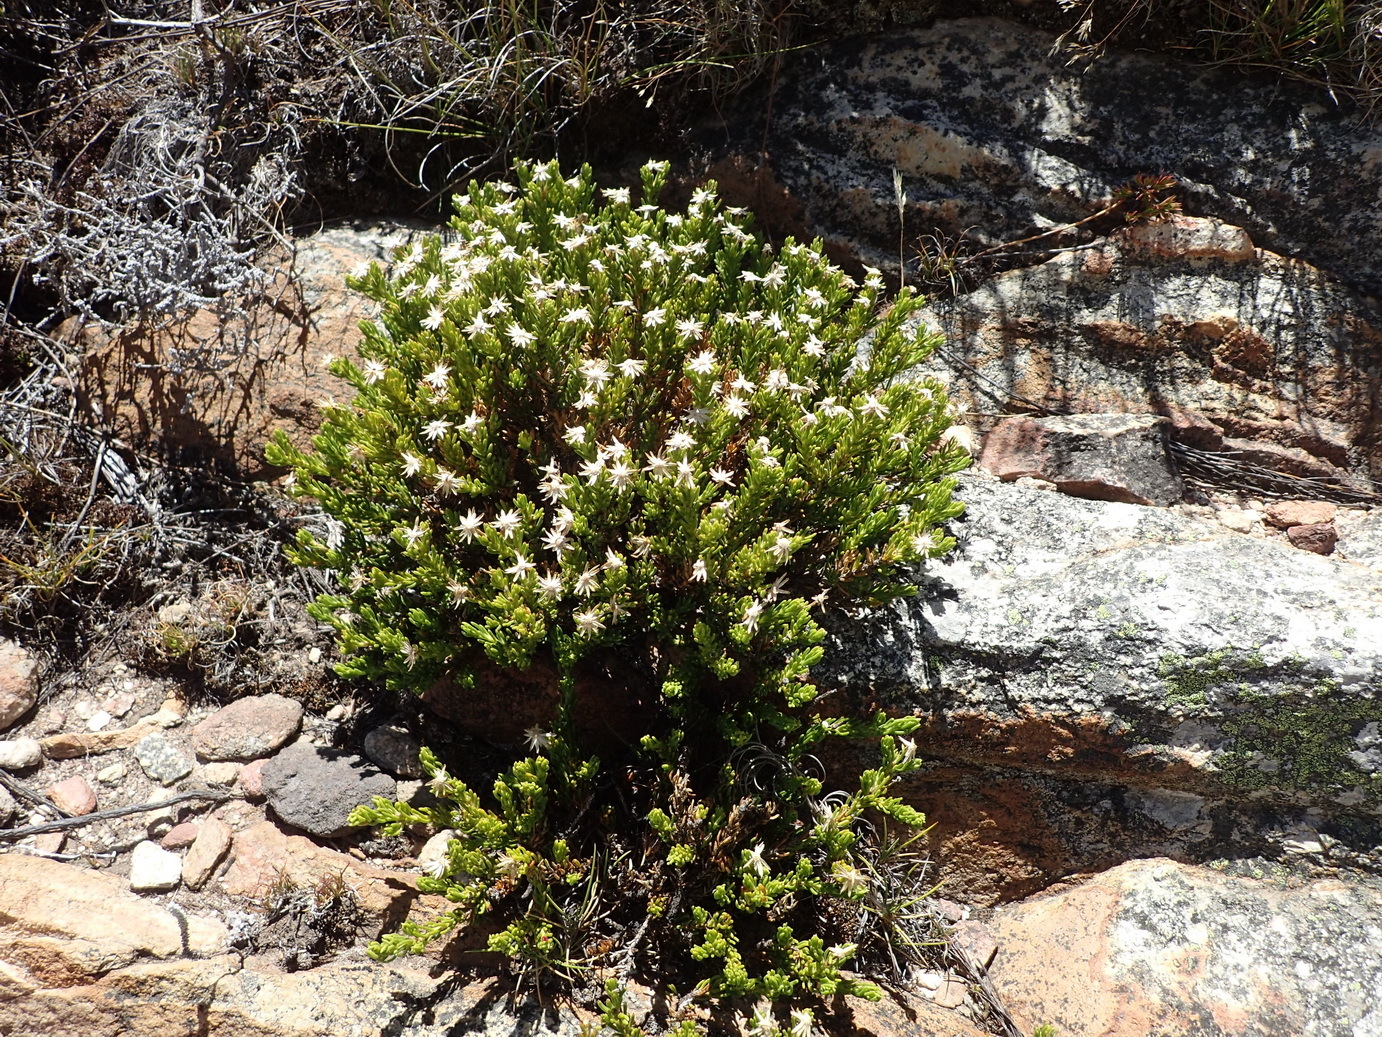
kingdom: Plantae
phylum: Tracheophyta
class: Magnoliopsida
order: Asterales
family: Asteraceae
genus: Felicia
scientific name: Felicia oleosa
